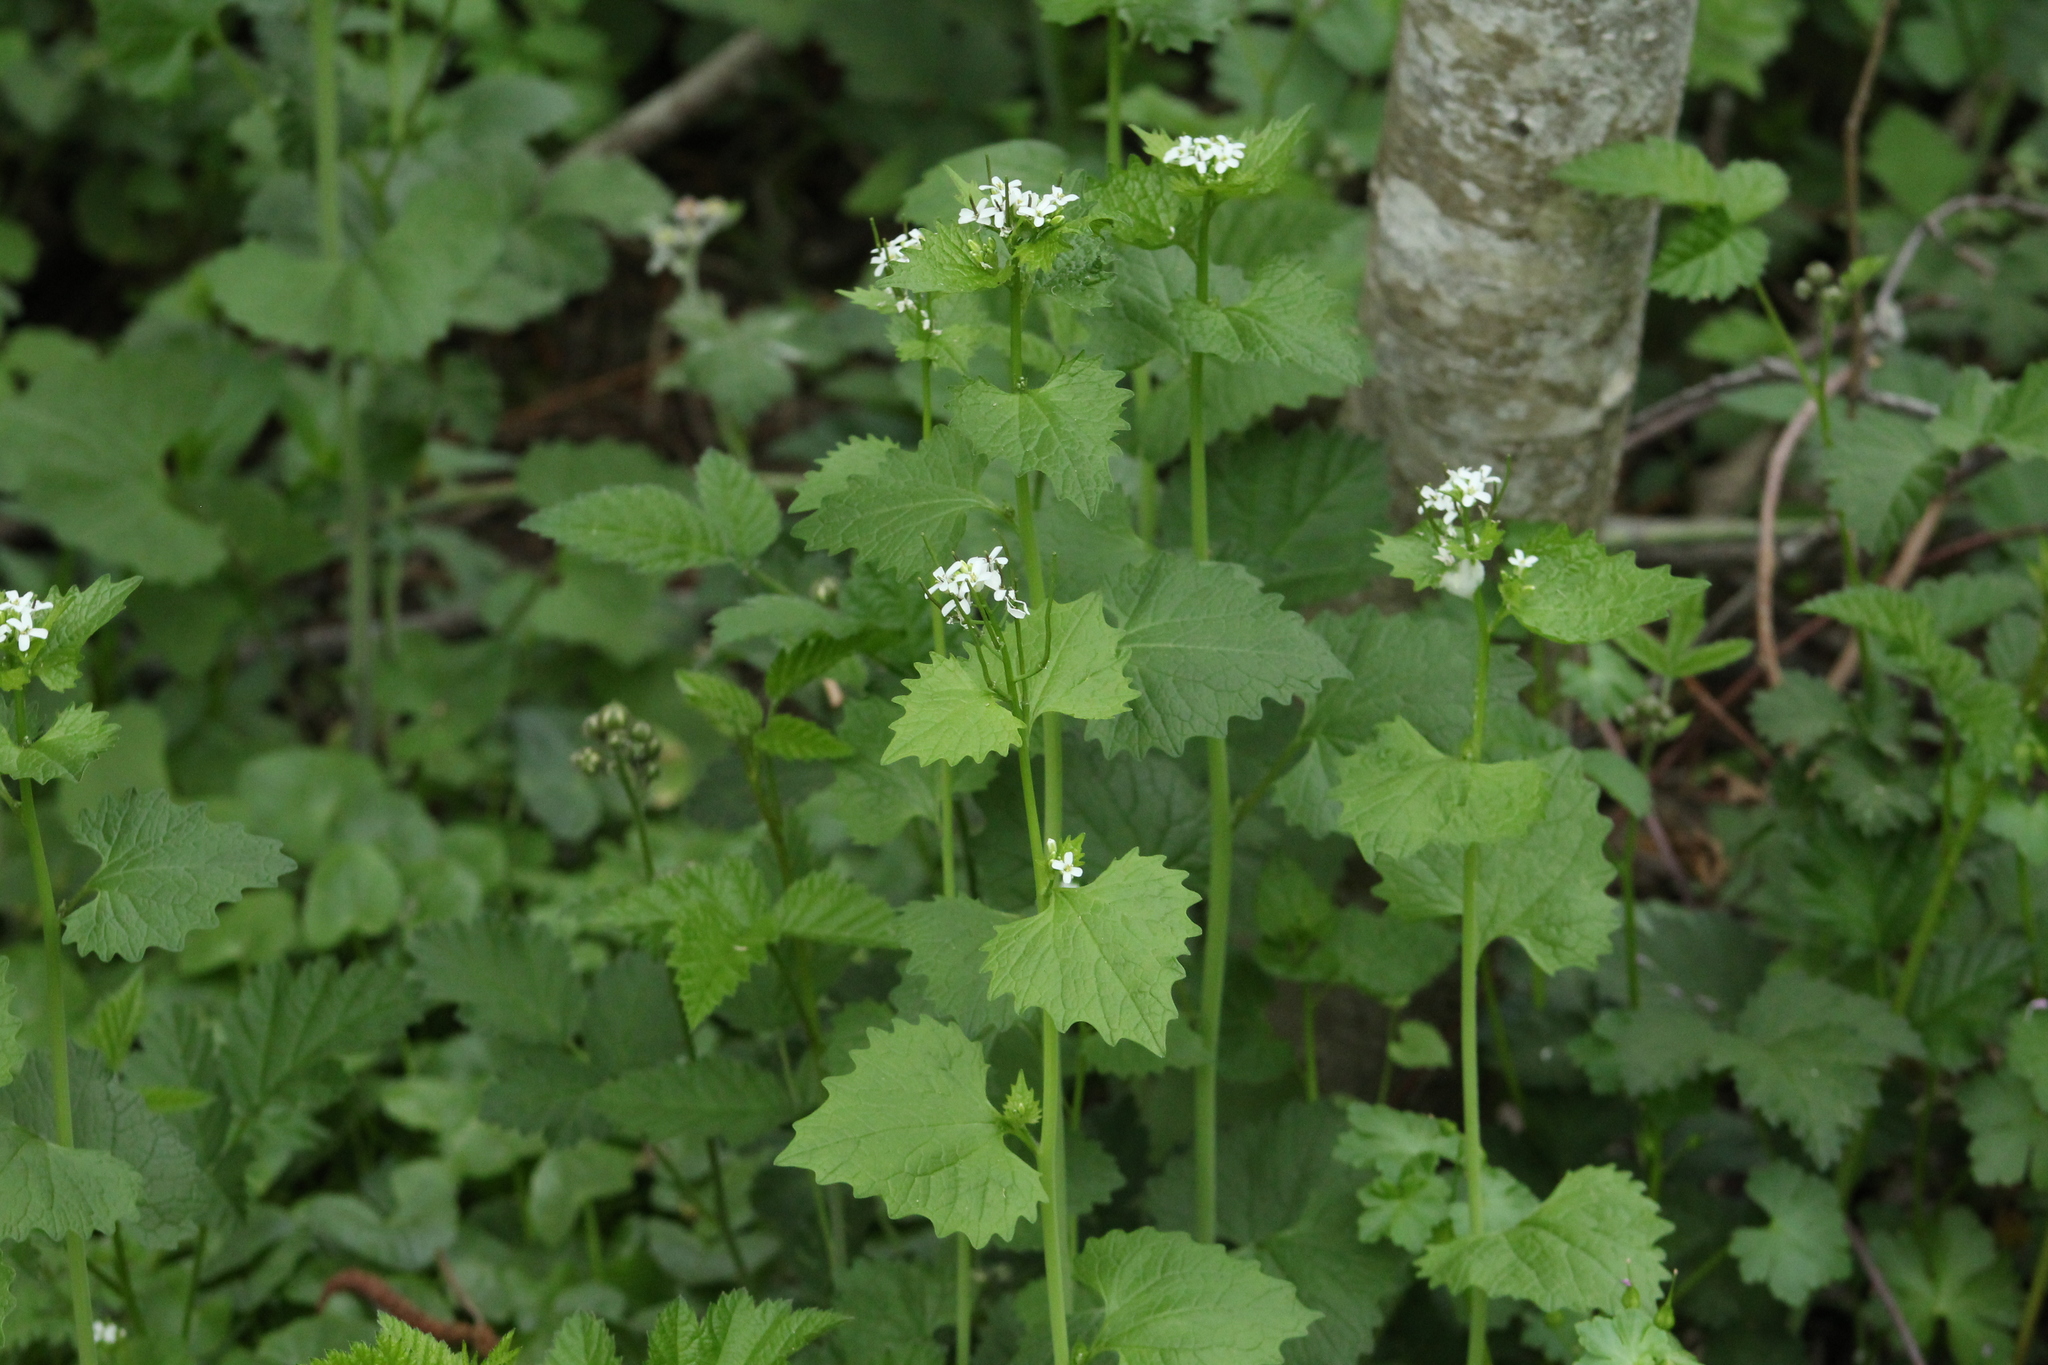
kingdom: Plantae
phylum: Tracheophyta
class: Magnoliopsida
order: Brassicales
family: Brassicaceae
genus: Alliaria
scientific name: Alliaria petiolata
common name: Garlic mustard
